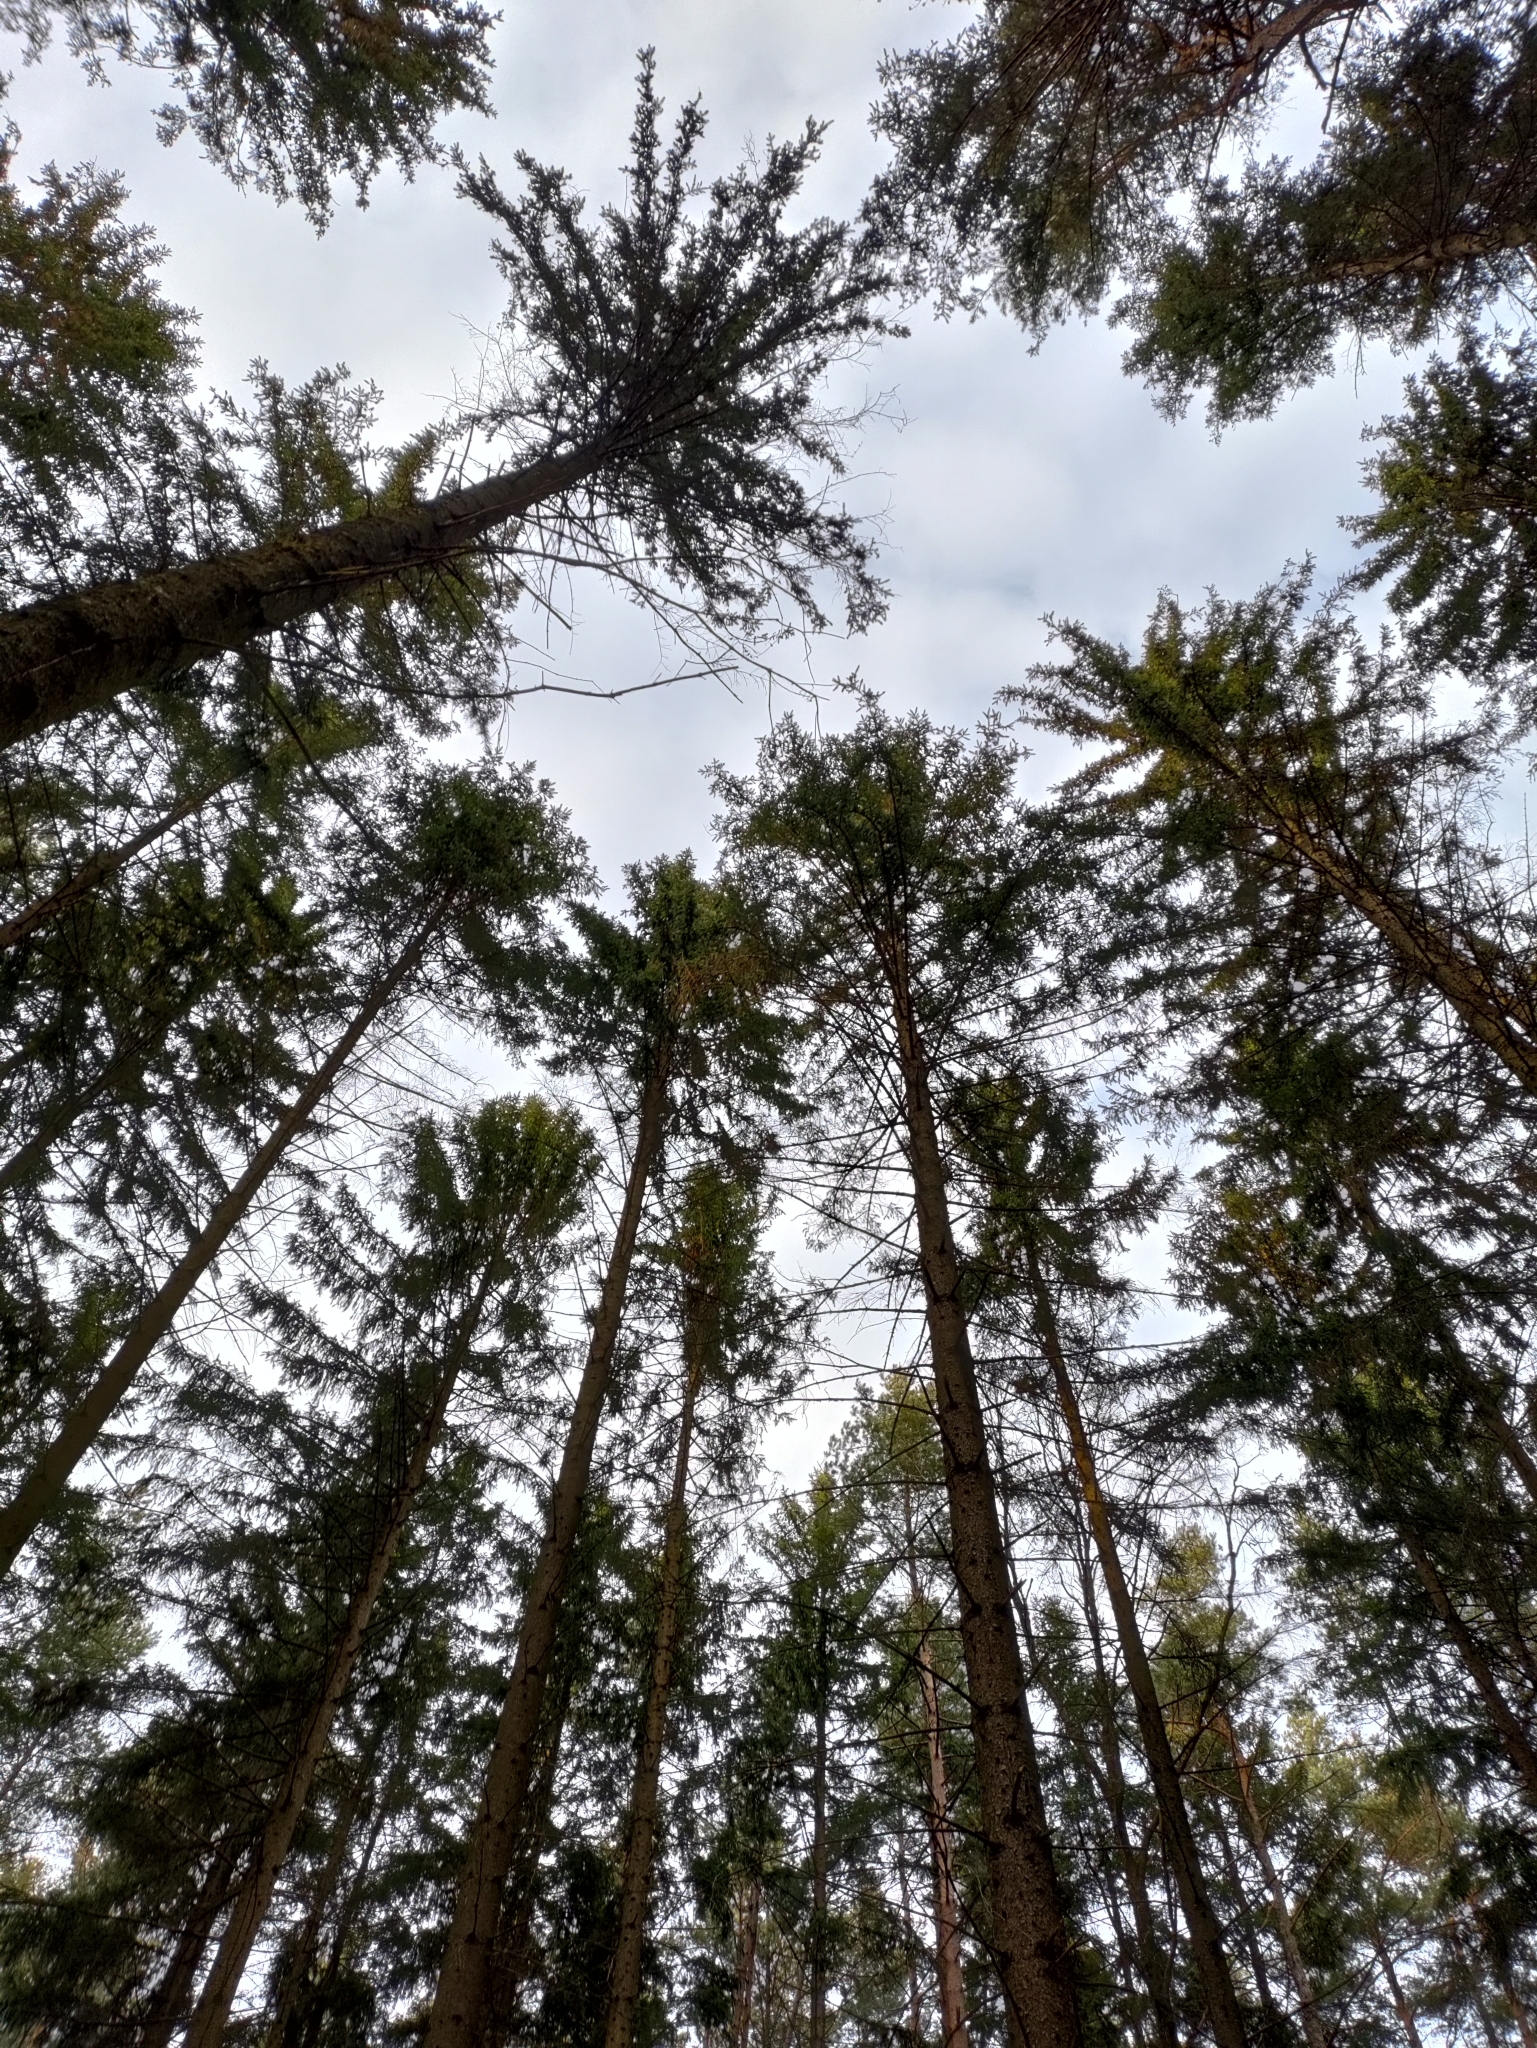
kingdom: Plantae
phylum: Tracheophyta
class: Pinopsida
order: Pinales
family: Pinaceae
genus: Picea
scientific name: Picea abies
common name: Norway spruce
